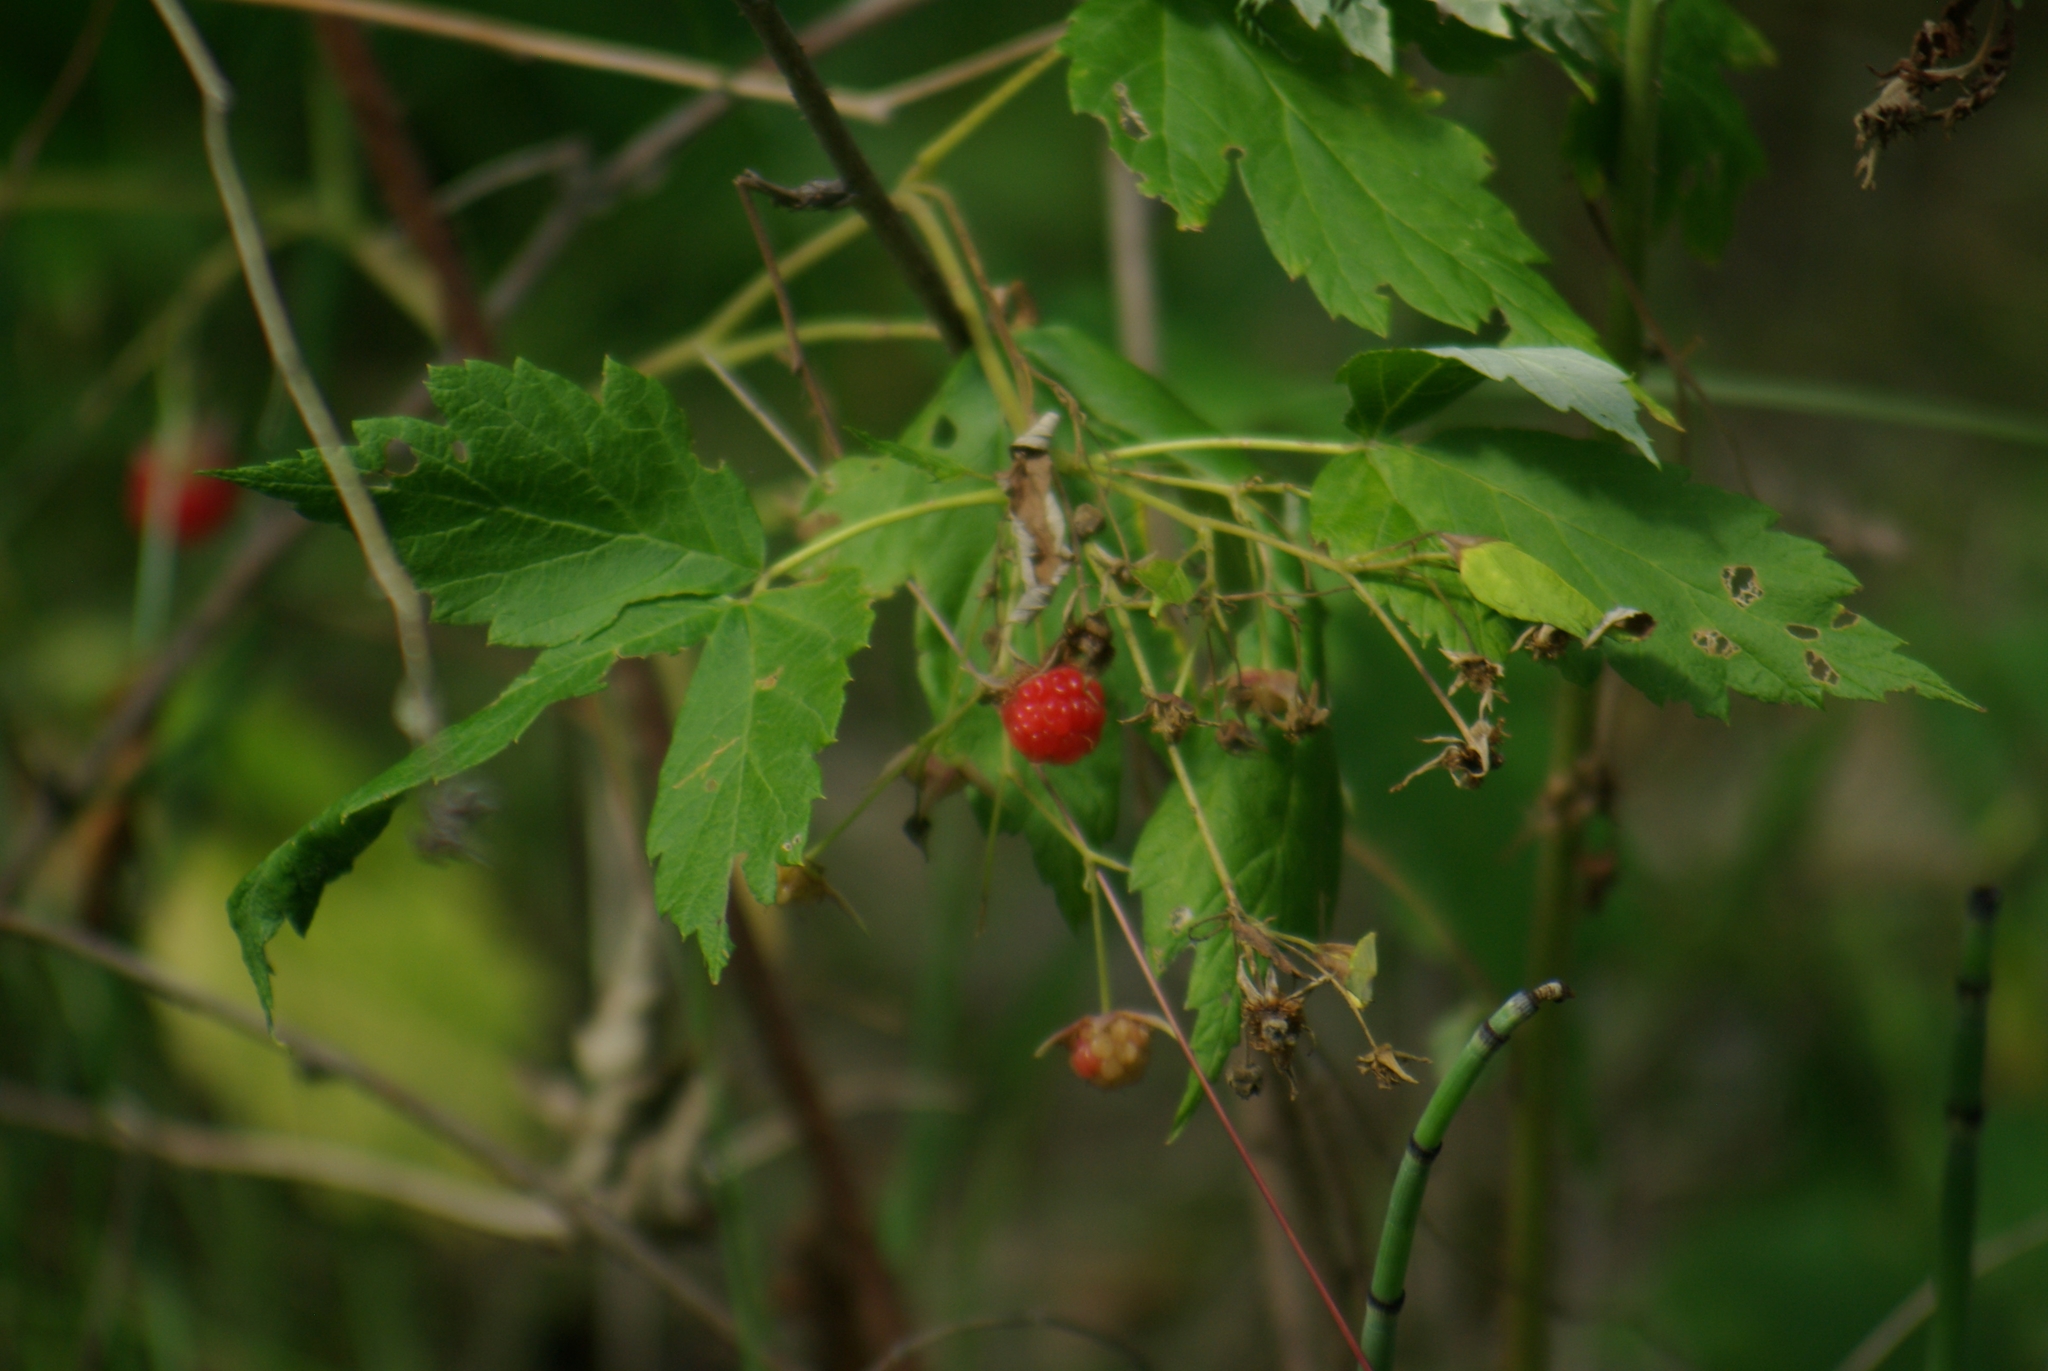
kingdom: Plantae
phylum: Tracheophyta
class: Magnoliopsida
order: Rosales
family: Rosaceae
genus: Rubus
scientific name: Rubus idaeus
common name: Raspberry
